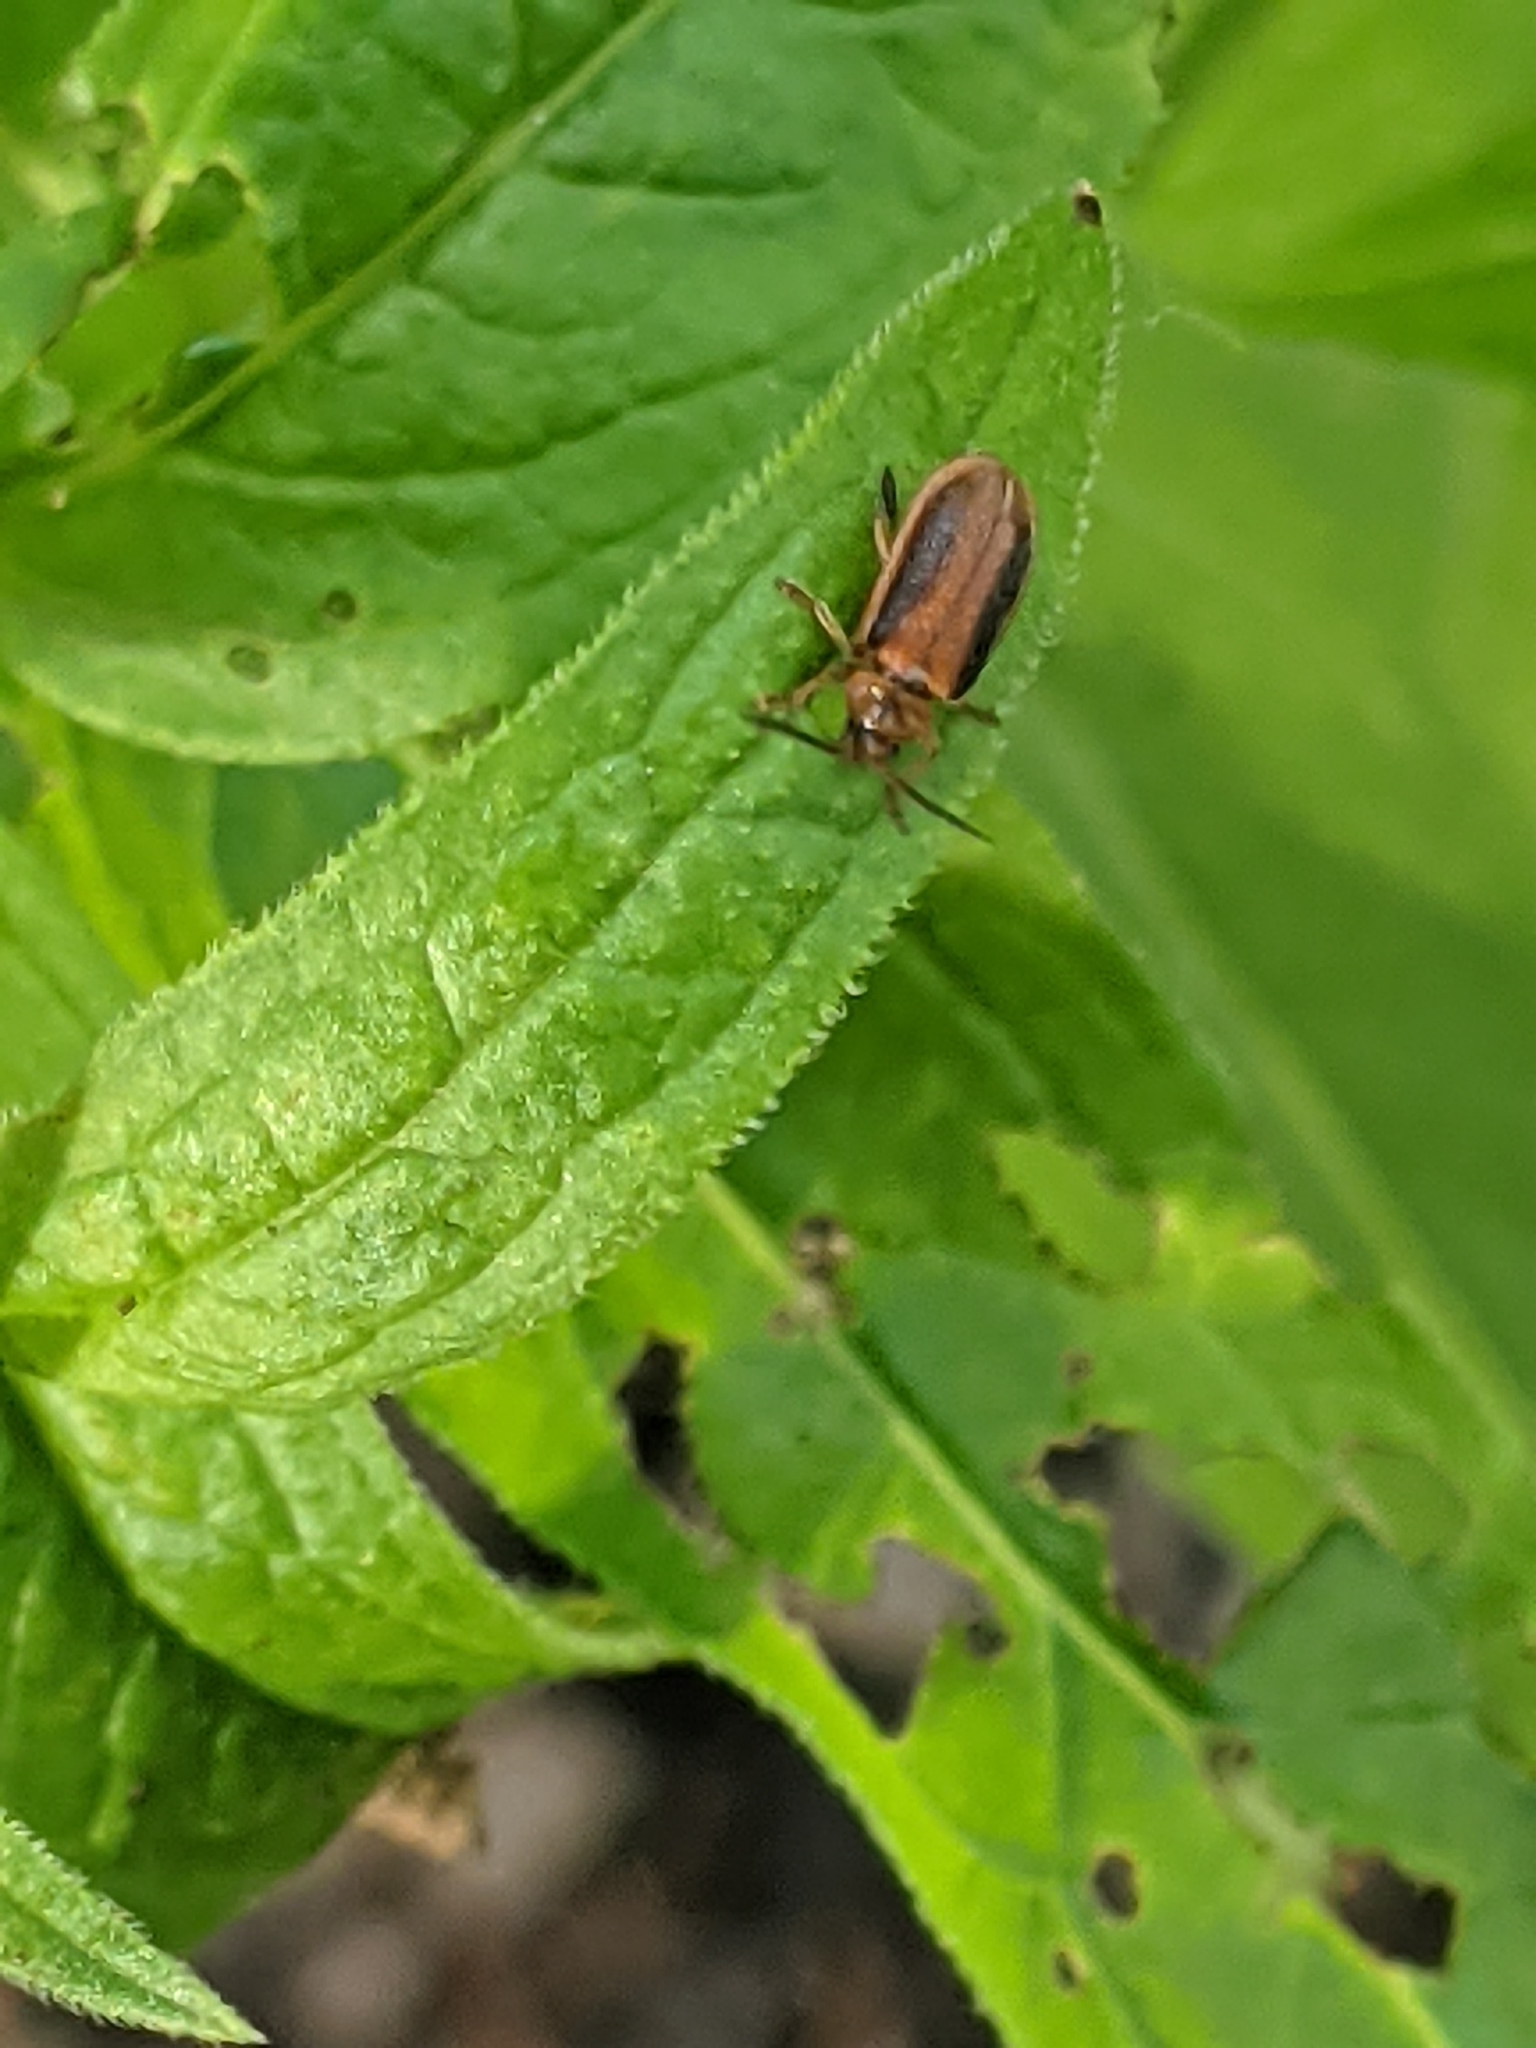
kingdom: Animalia
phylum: Arthropoda
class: Insecta
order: Coleoptera
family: Chrysomelidae
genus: Neogalerucella
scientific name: Neogalerucella calmariensis
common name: Black-margined loosestrife beetle
